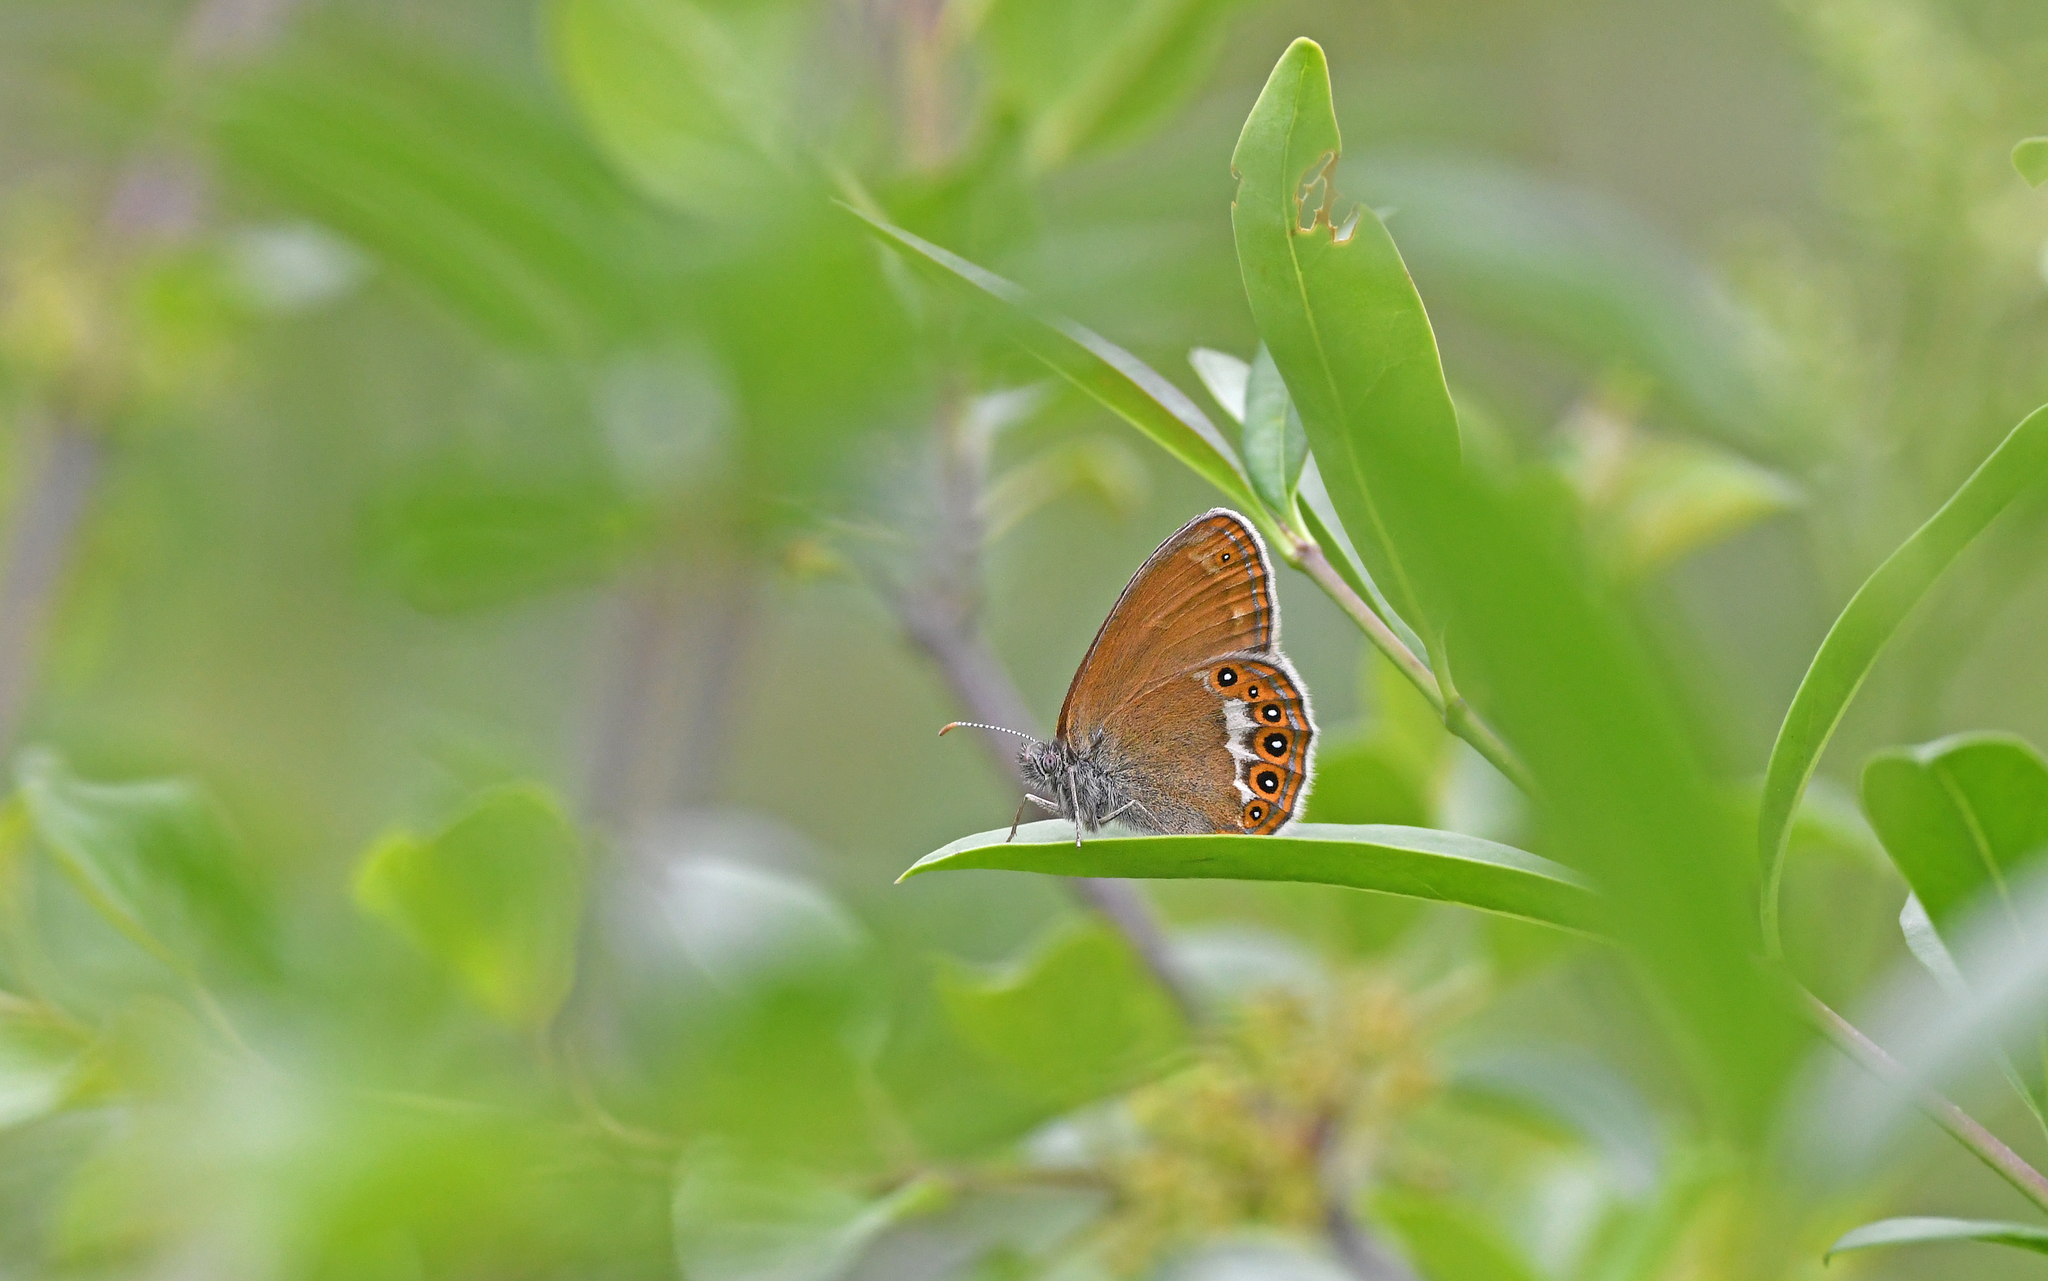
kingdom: Animalia
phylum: Arthropoda
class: Insecta
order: Lepidoptera
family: Nymphalidae
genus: Coenonympha
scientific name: Coenonympha hero
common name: Scarce heath
